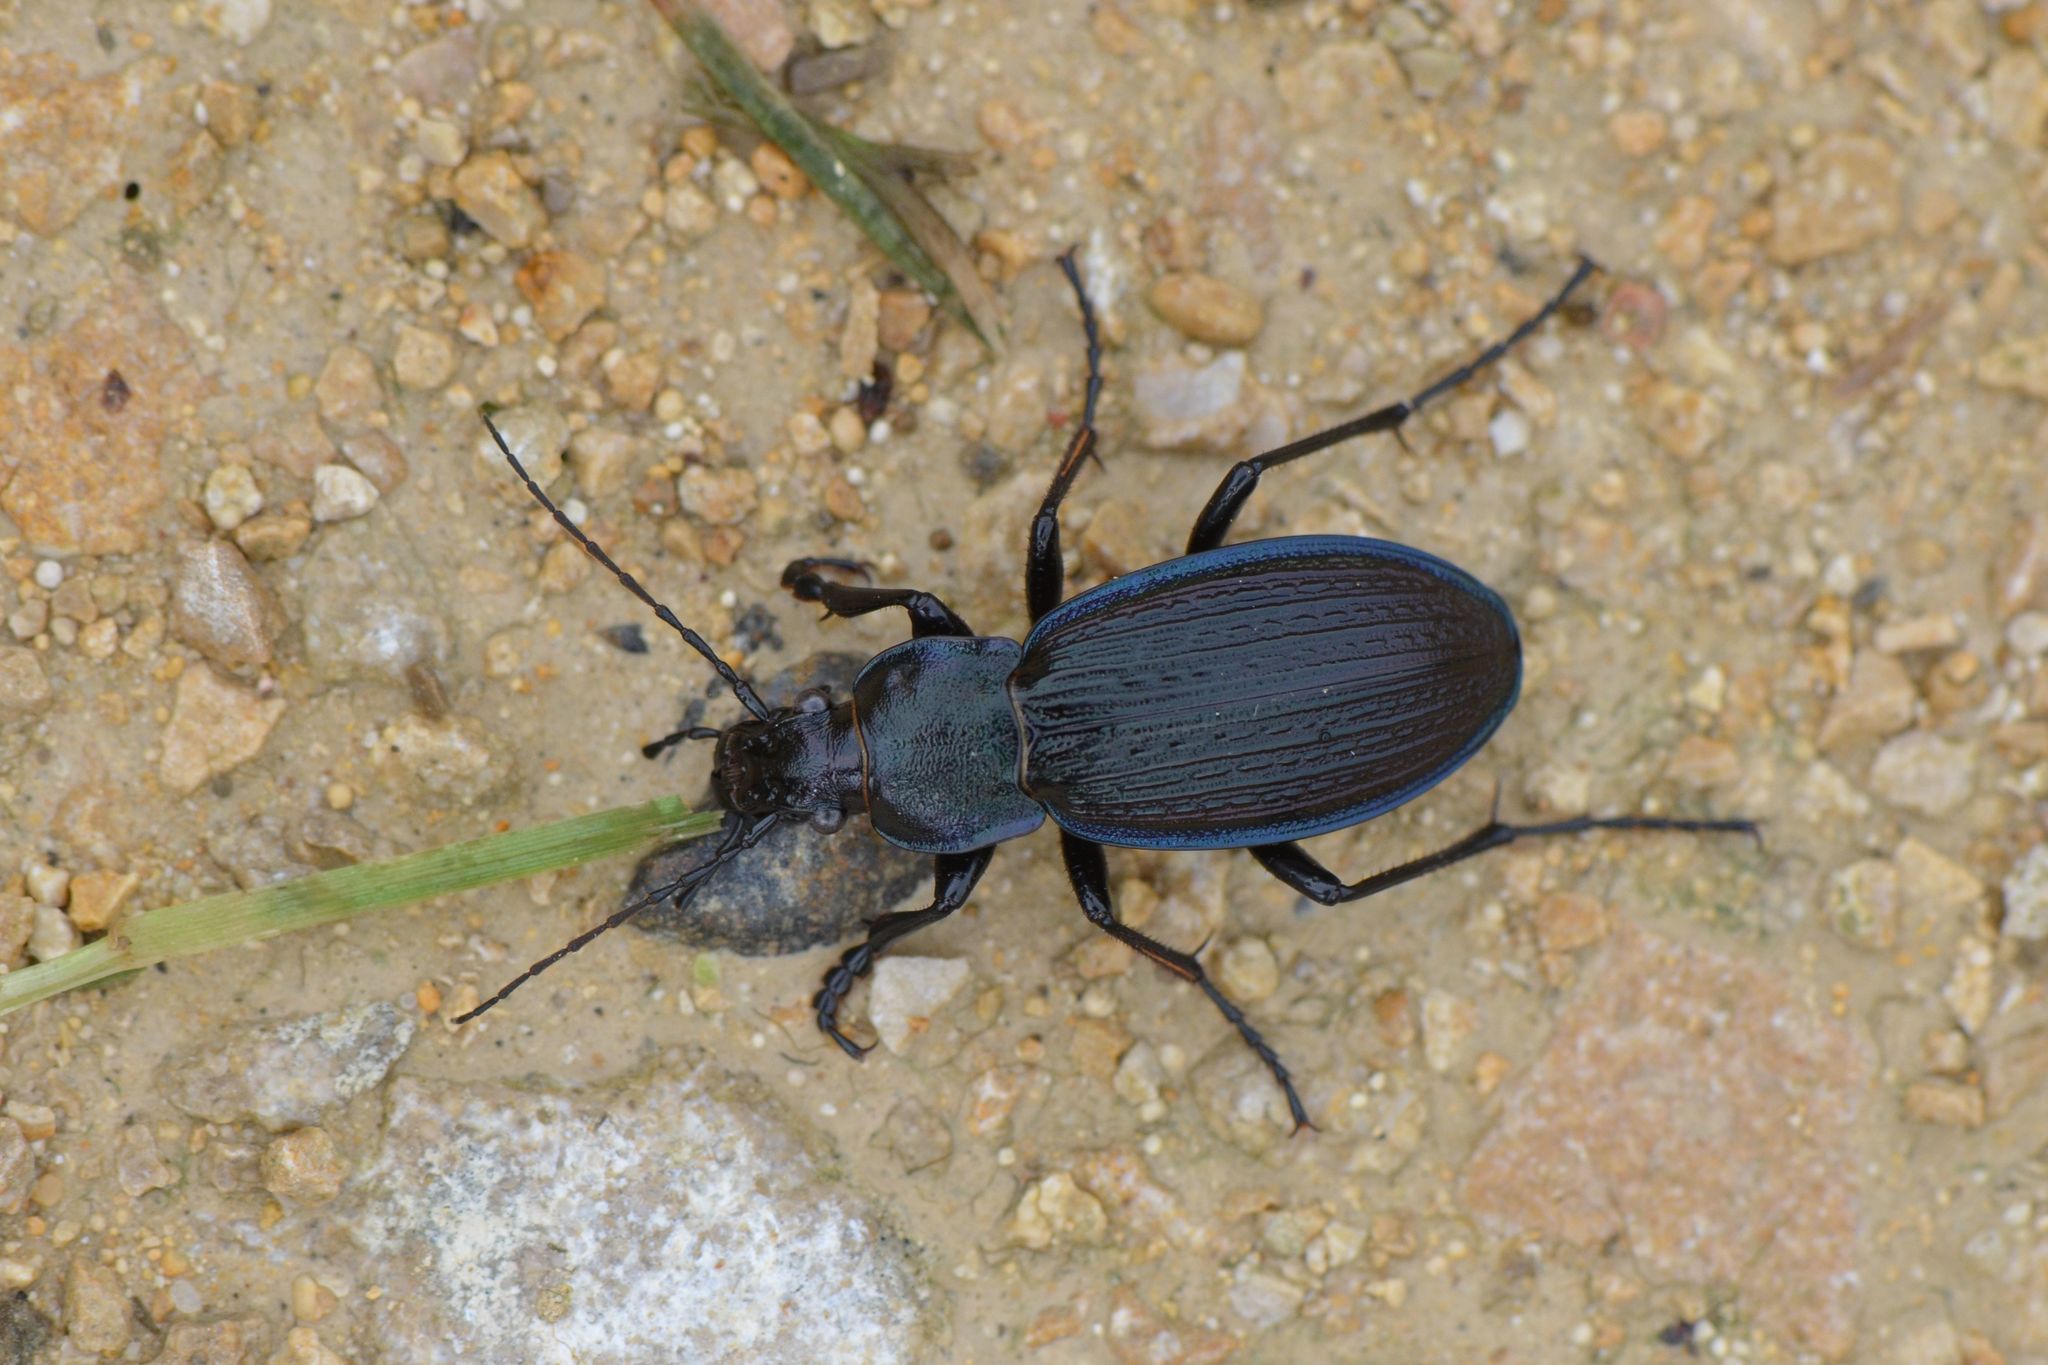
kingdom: Animalia
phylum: Arthropoda
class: Insecta
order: Coleoptera
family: Carabidae
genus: Carabus
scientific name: Carabus monilis
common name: Necklace ground beetle
